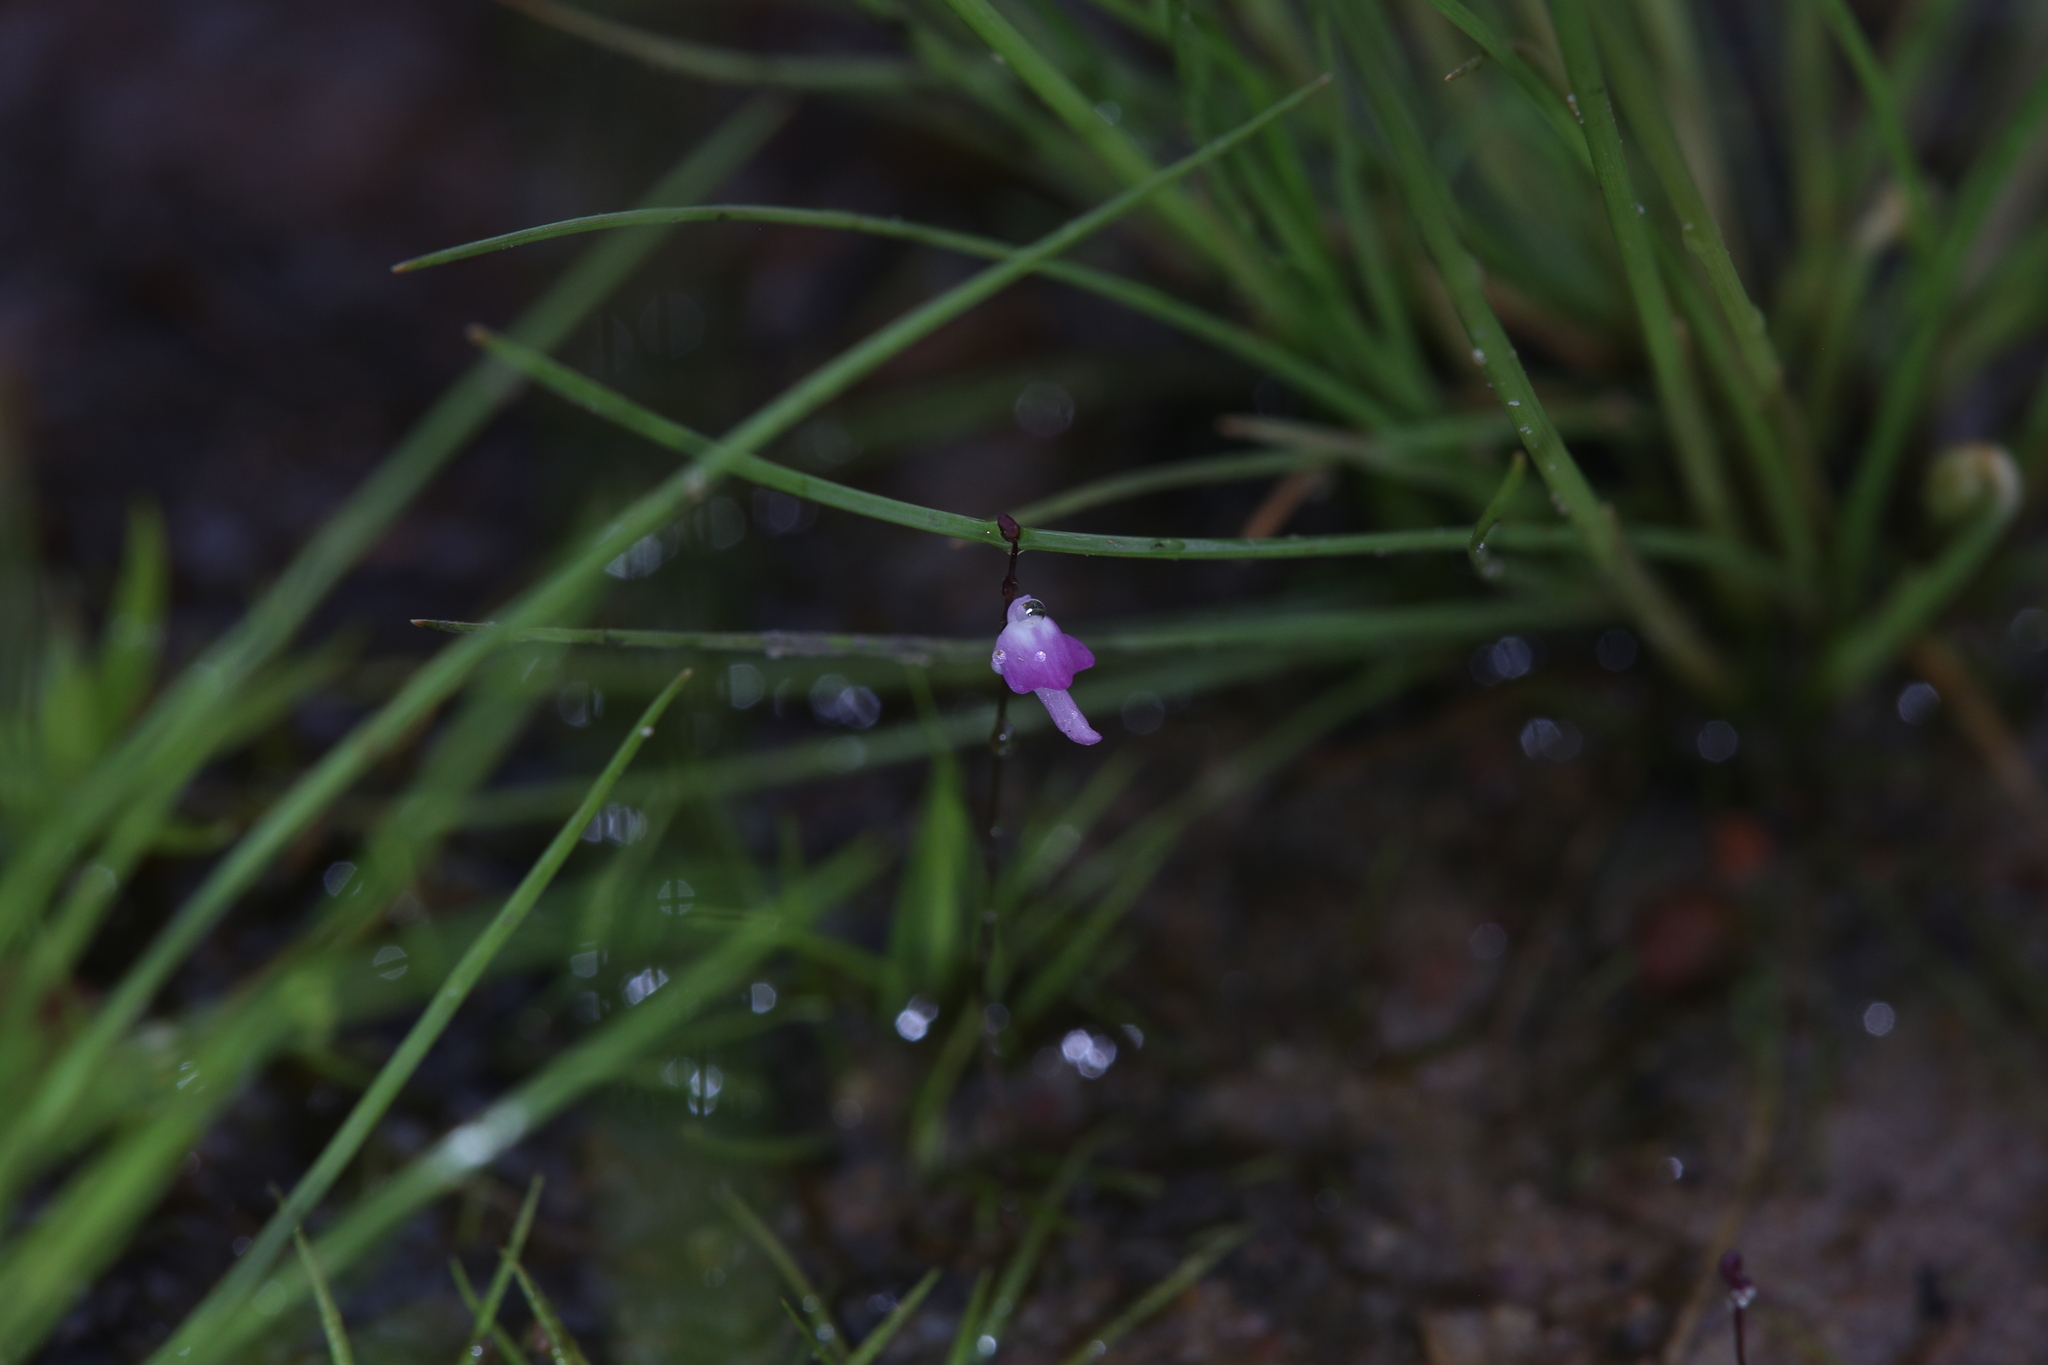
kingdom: Plantae
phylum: Tracheophyta
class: Magnoliopsida
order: Lamiales
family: Lentibulariaceae
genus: Utricularia
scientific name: Utricularia minutissima
